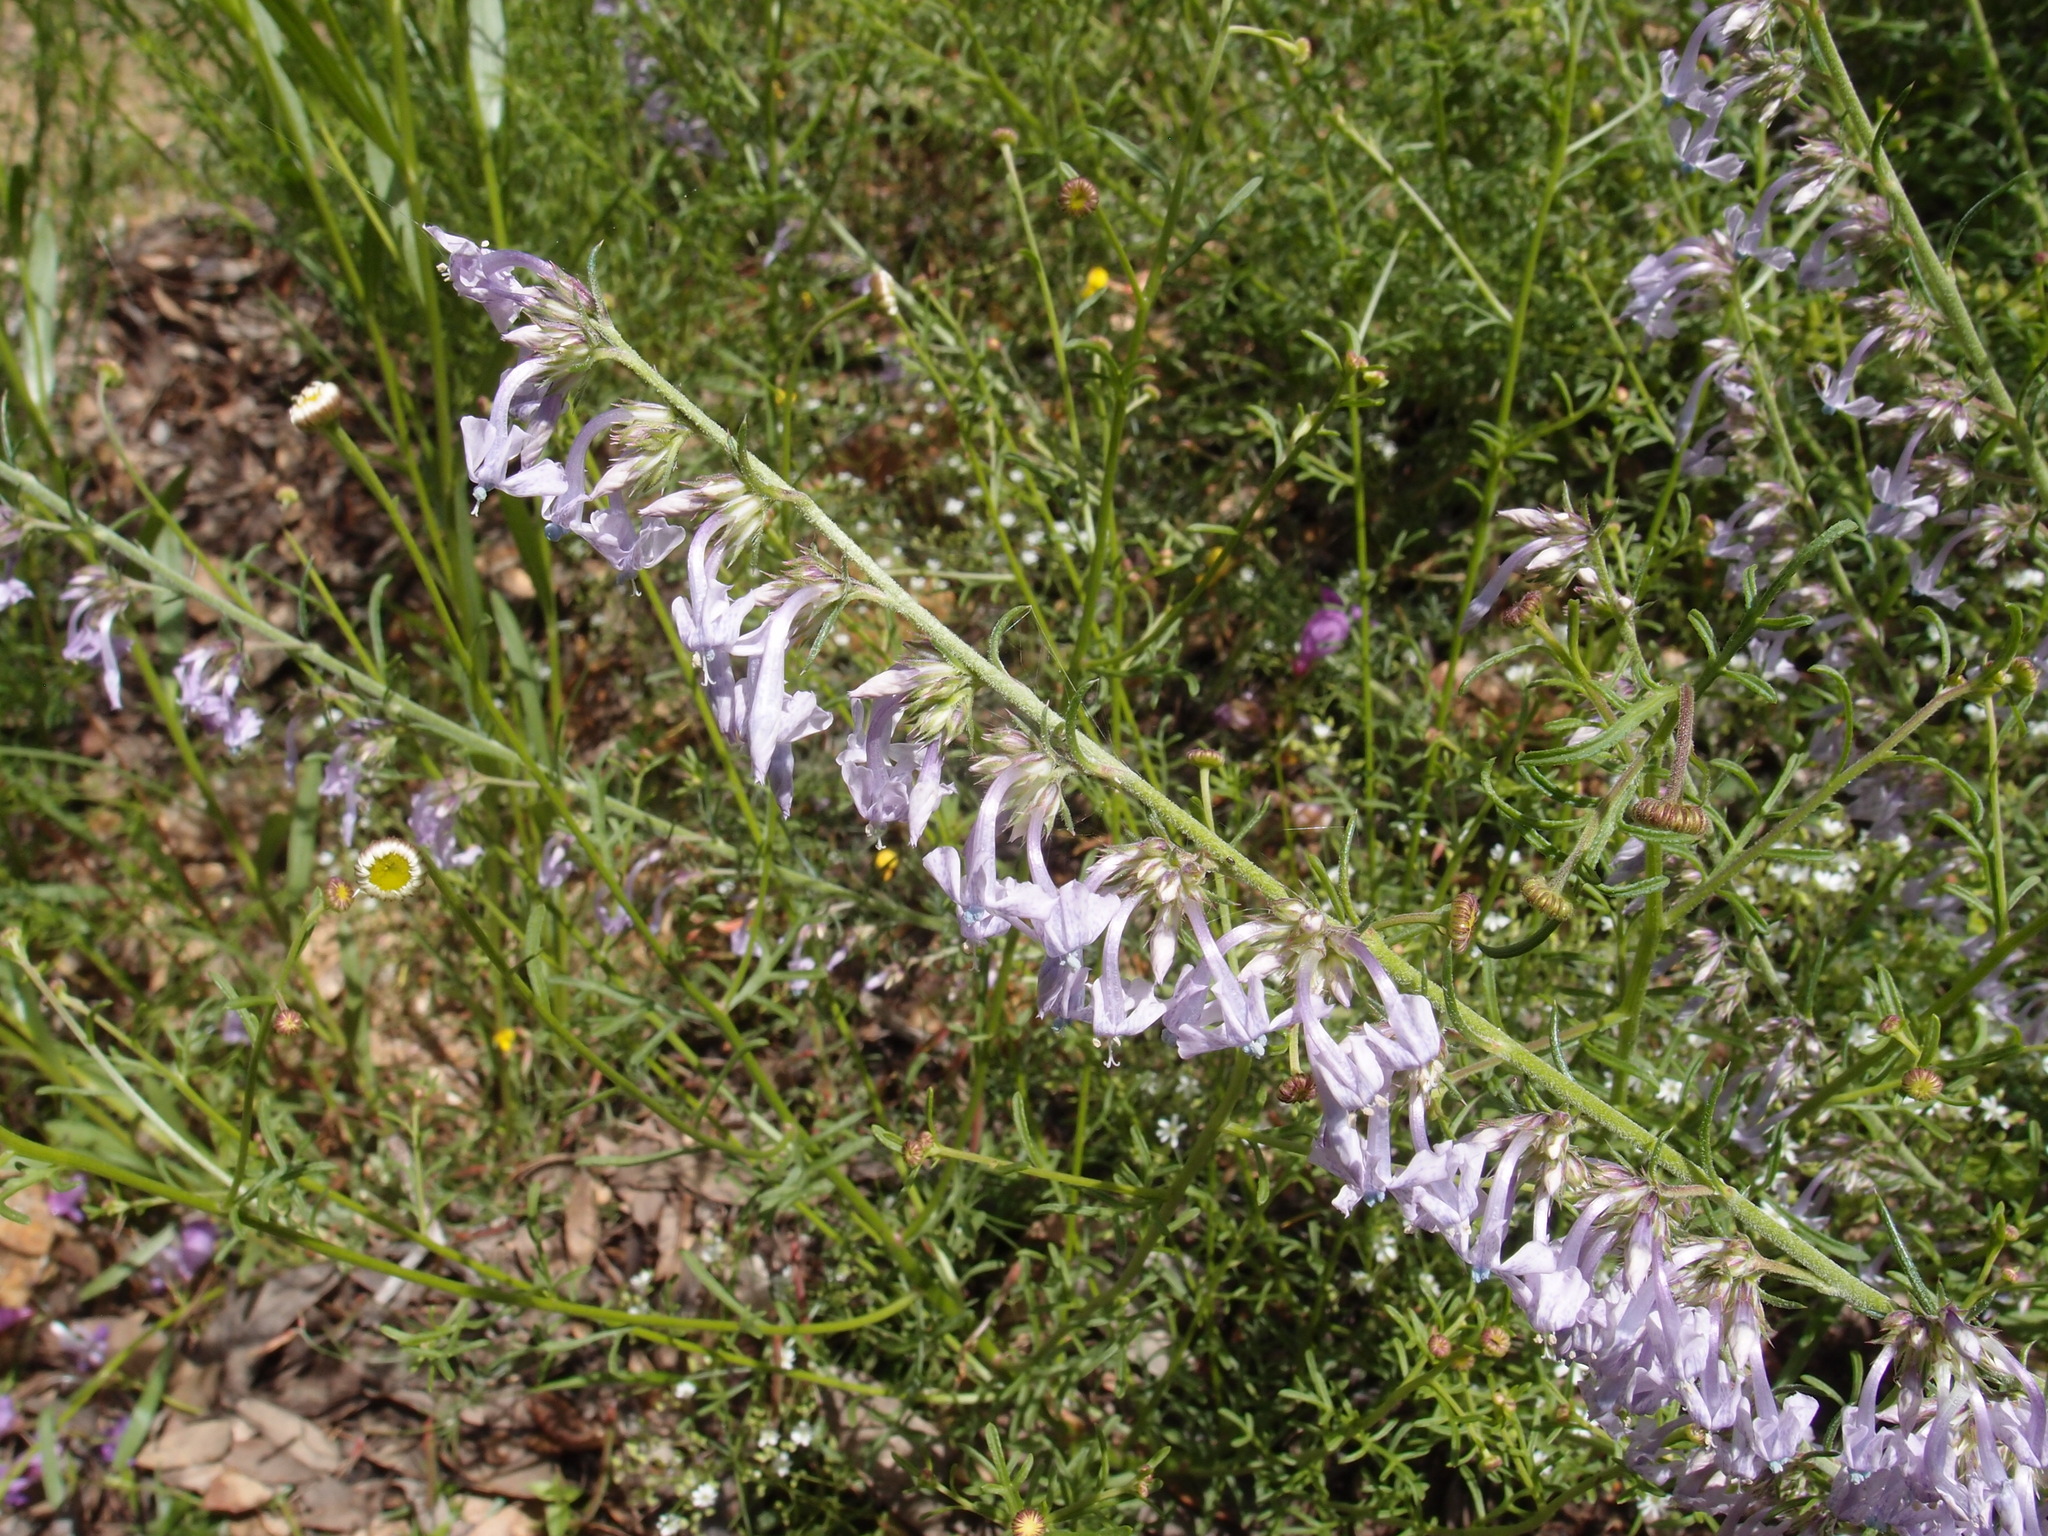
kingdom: Plantae
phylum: Tracheophyta
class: Magnoliopsida
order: Ericales
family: Polemoniaceae
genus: Ipomopsis
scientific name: Ipomopsis macombii
